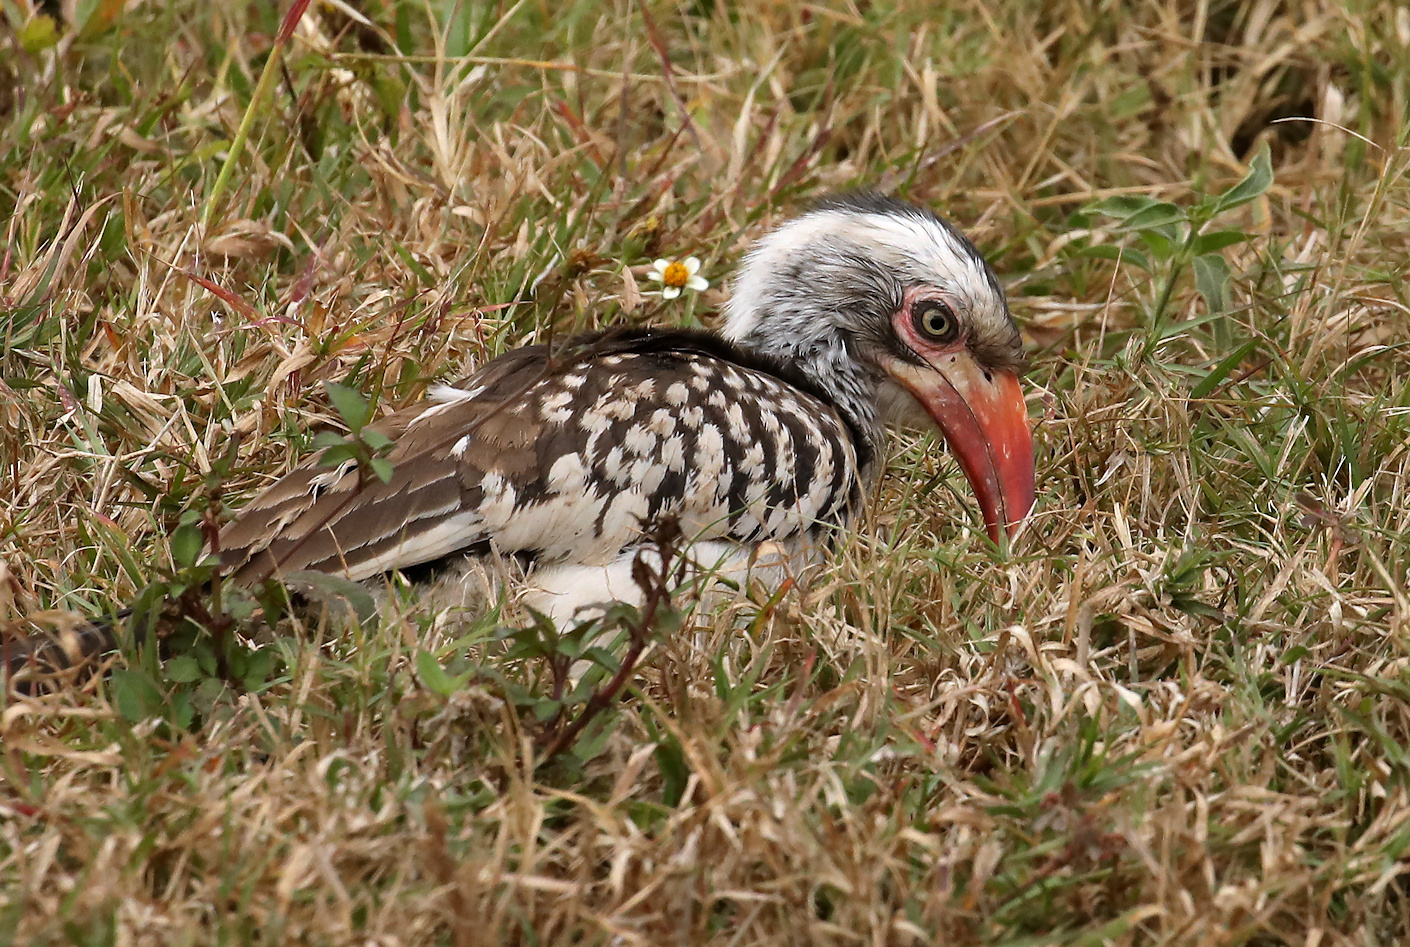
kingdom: Animalia
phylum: Chordata
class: Aves
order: Bucerotiformes
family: Bucerotidae
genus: Tockus
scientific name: Tockus rufirostris
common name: Southern red-billed hornbill
